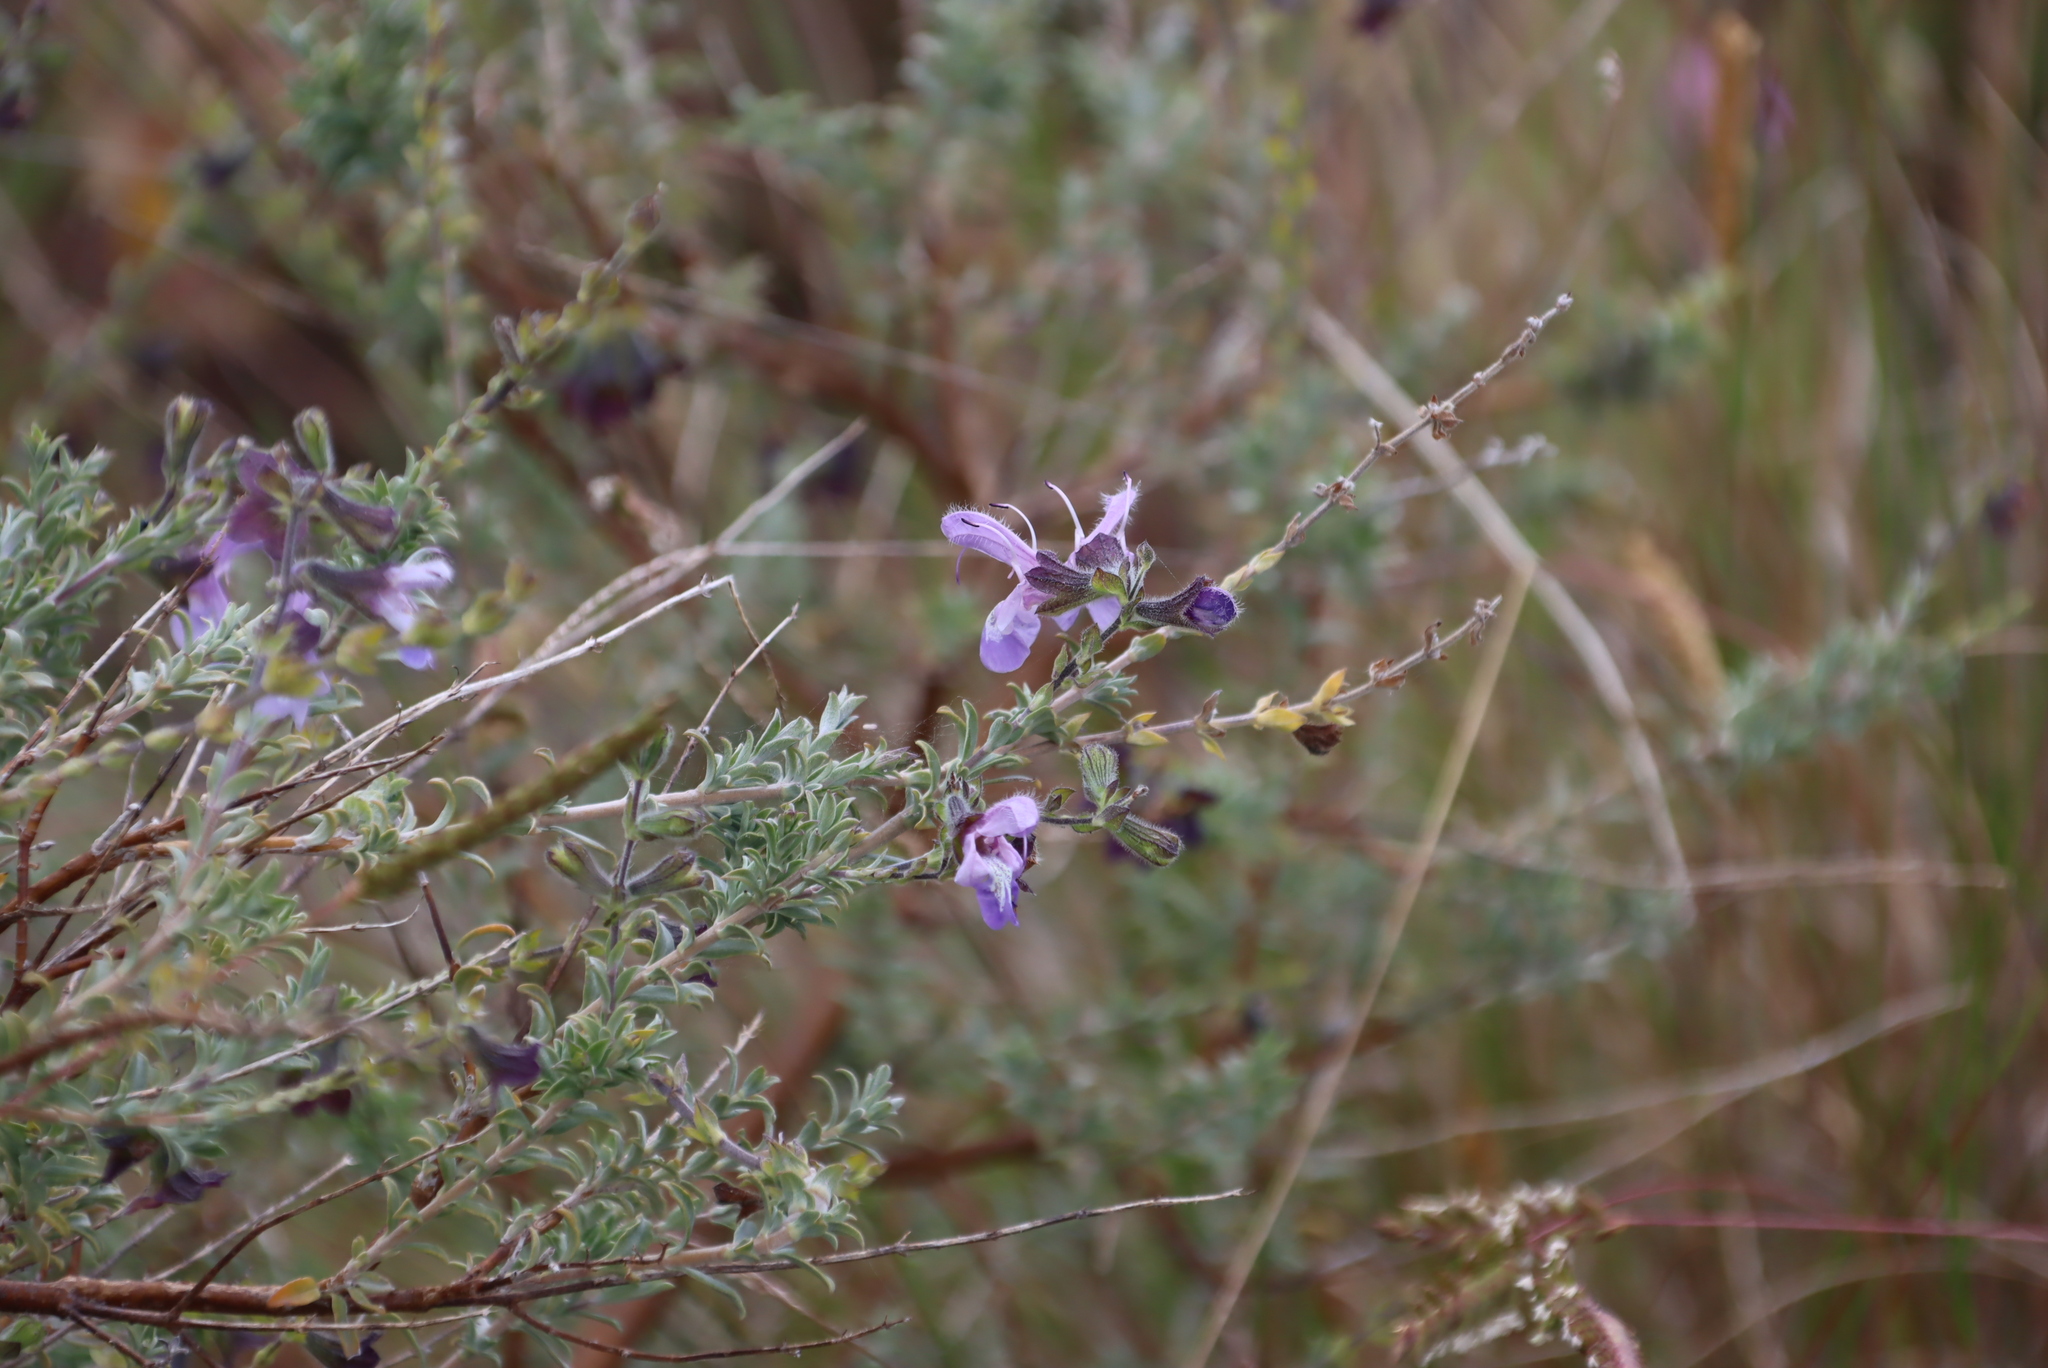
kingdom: Plantae
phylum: Tracheophyta
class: Magnoliopsida
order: Lamiales
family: Lamiaceae
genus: Salvia
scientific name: Salvia africana
